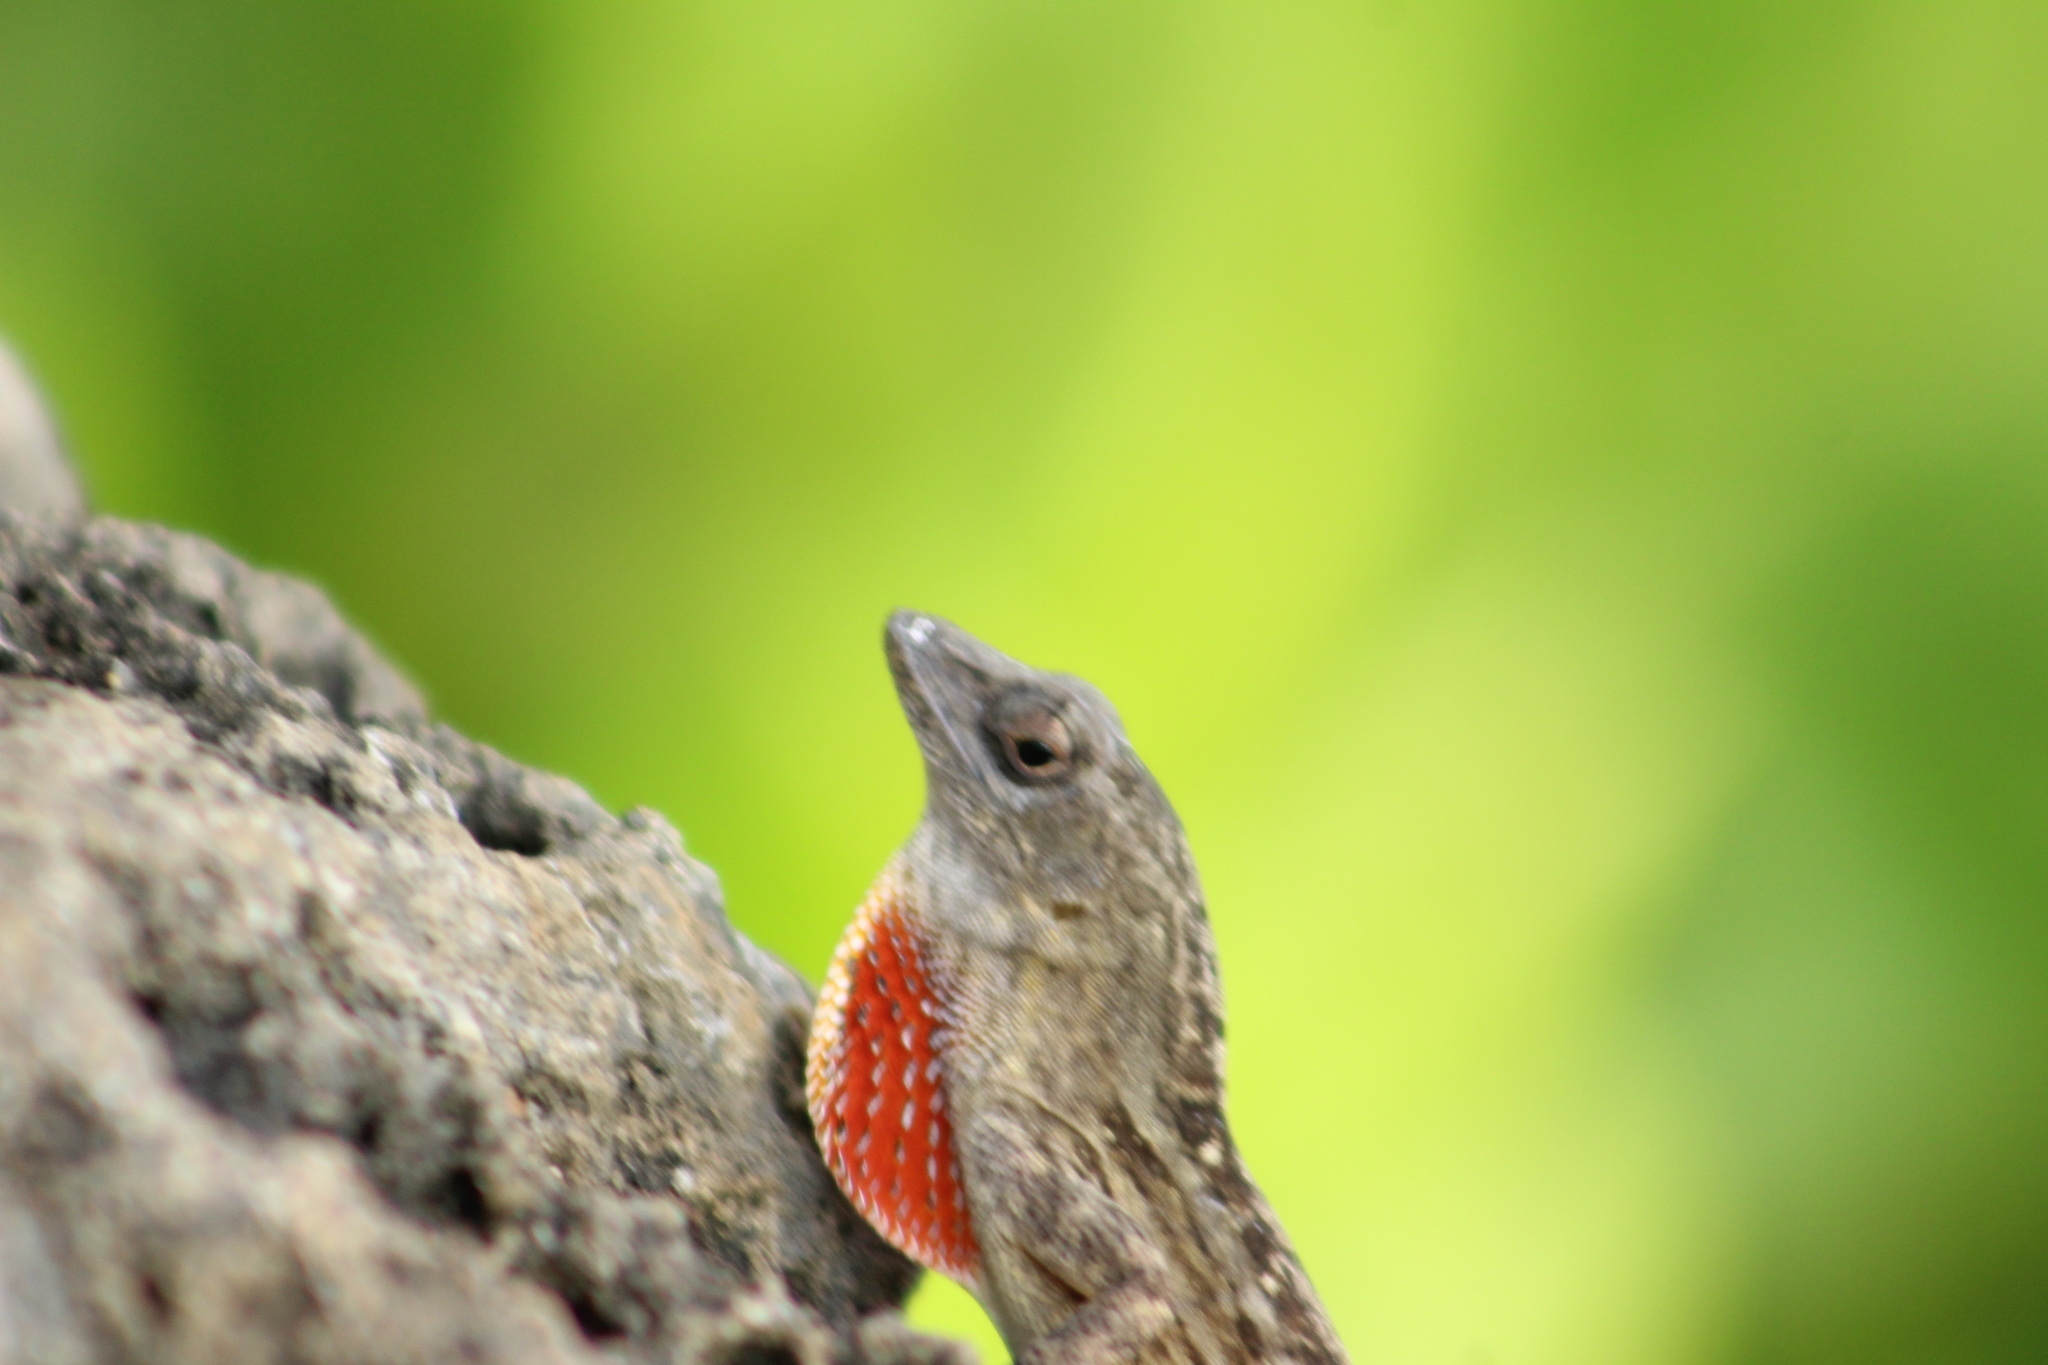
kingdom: Animalia
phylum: Chordata
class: Squamata
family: Dactyloidae
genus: Anolis
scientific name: Anolis sagrei
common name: Brown anole
